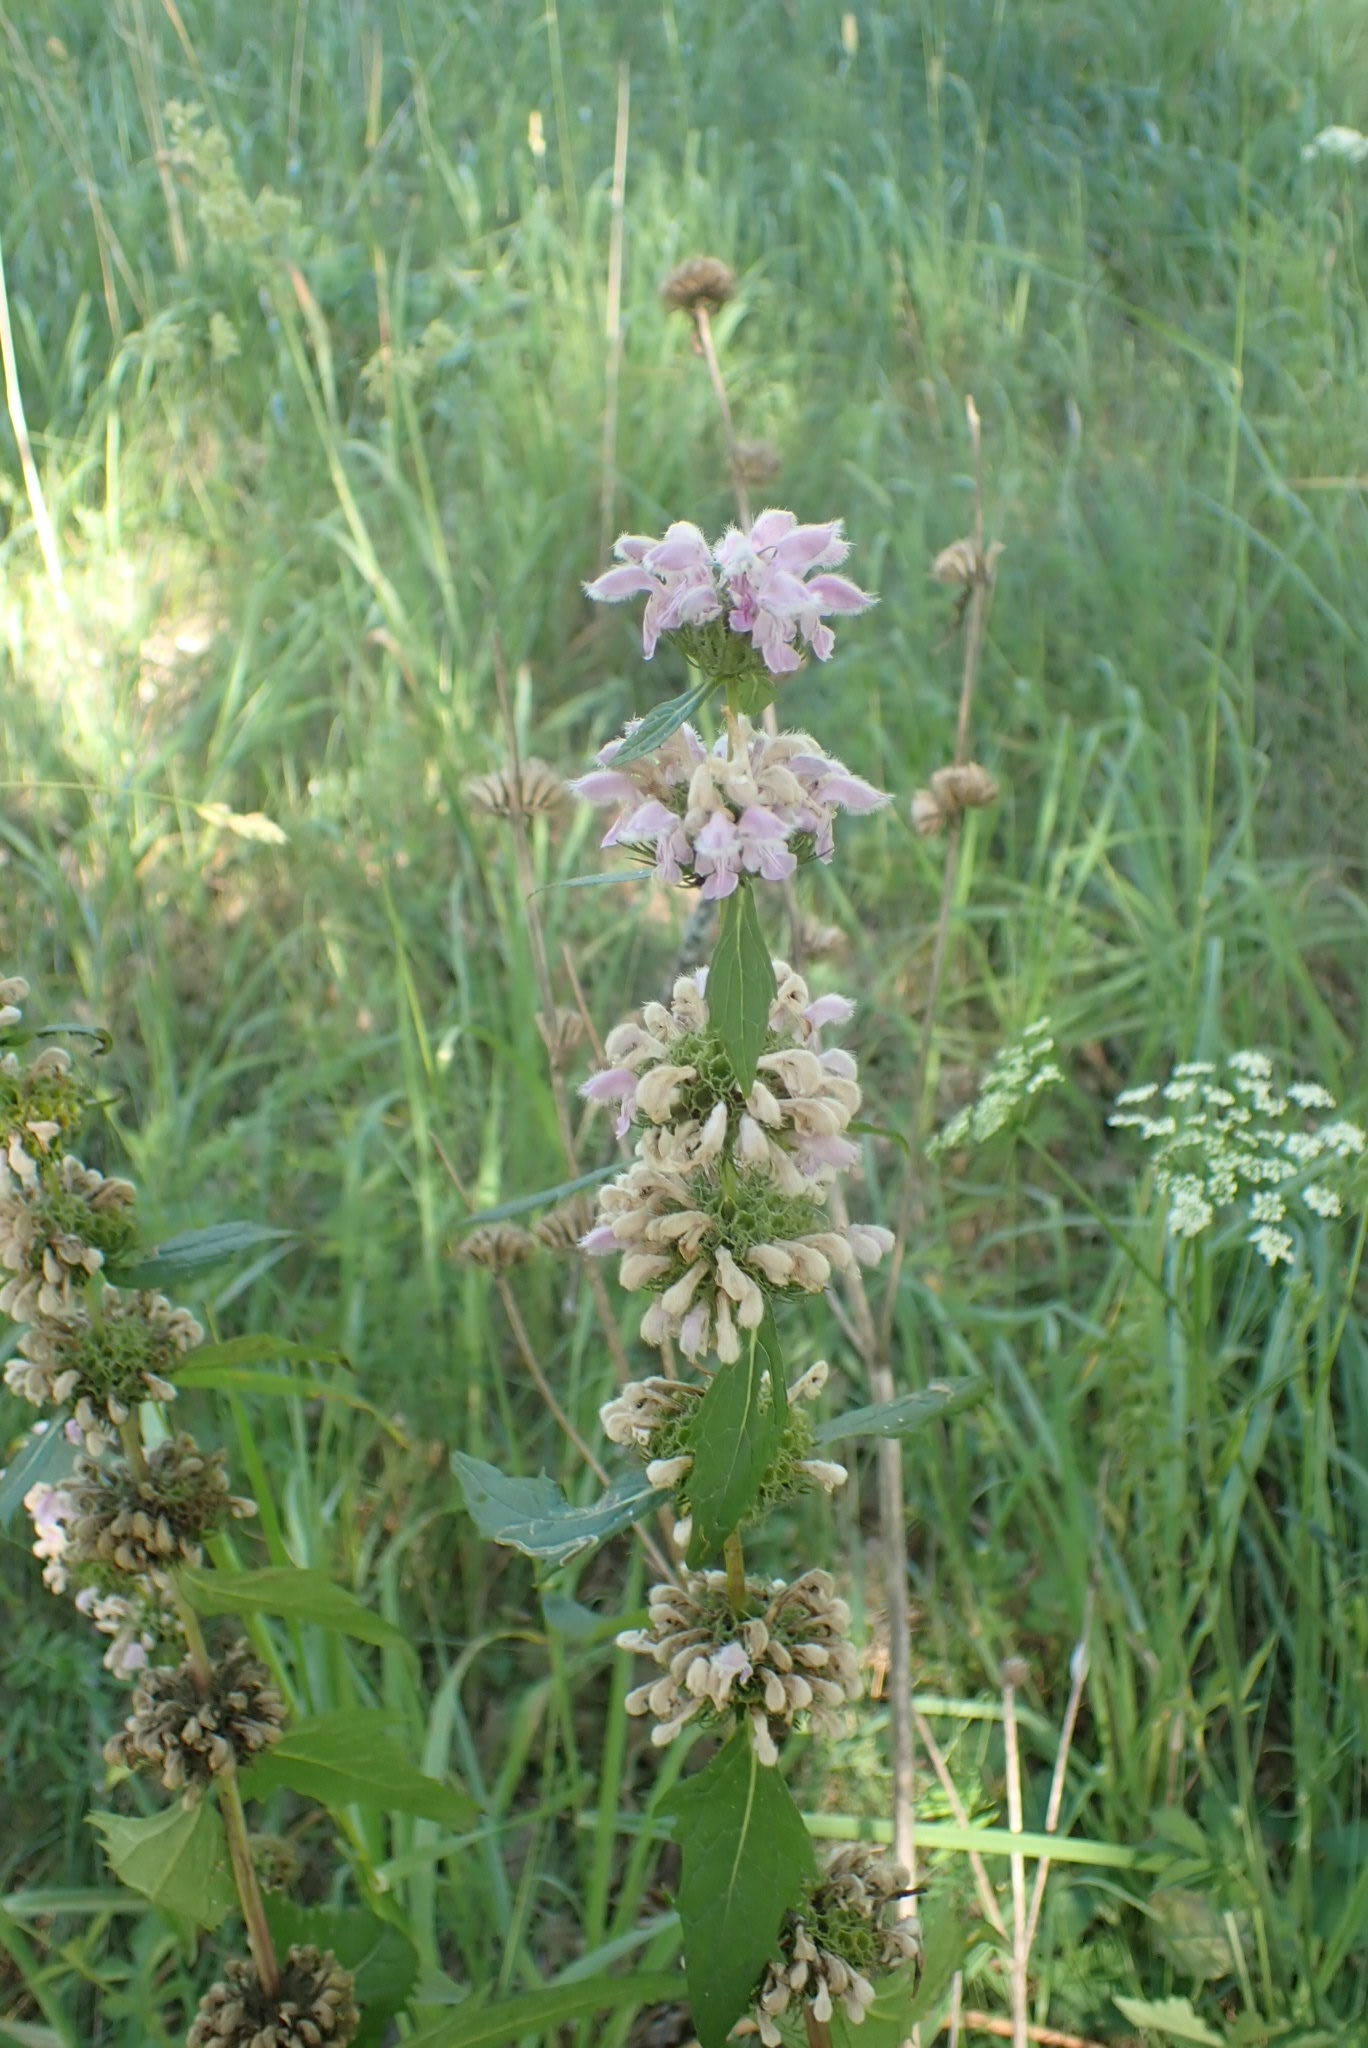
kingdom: Plantae
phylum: Tracheophyta
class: Magnoliopsida
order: Lamiales
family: Lamiaceae
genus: Phlomoides
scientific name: Phlomoides tuberosa
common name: Tuberous jerusalem sage
